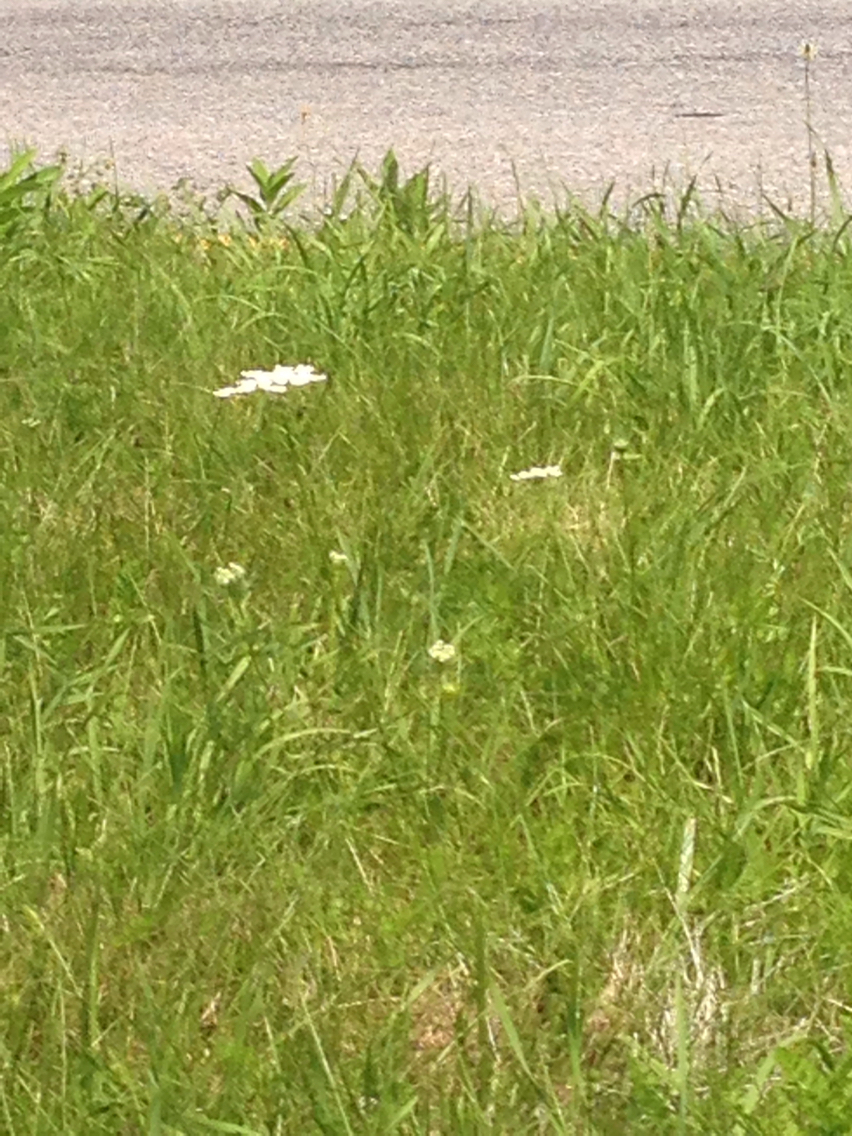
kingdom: Plantae
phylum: Tracheophyta
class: Magnoliopsida
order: Apiales
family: Apiaceae
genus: Daucus
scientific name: Daucus carota
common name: Wild carrot
